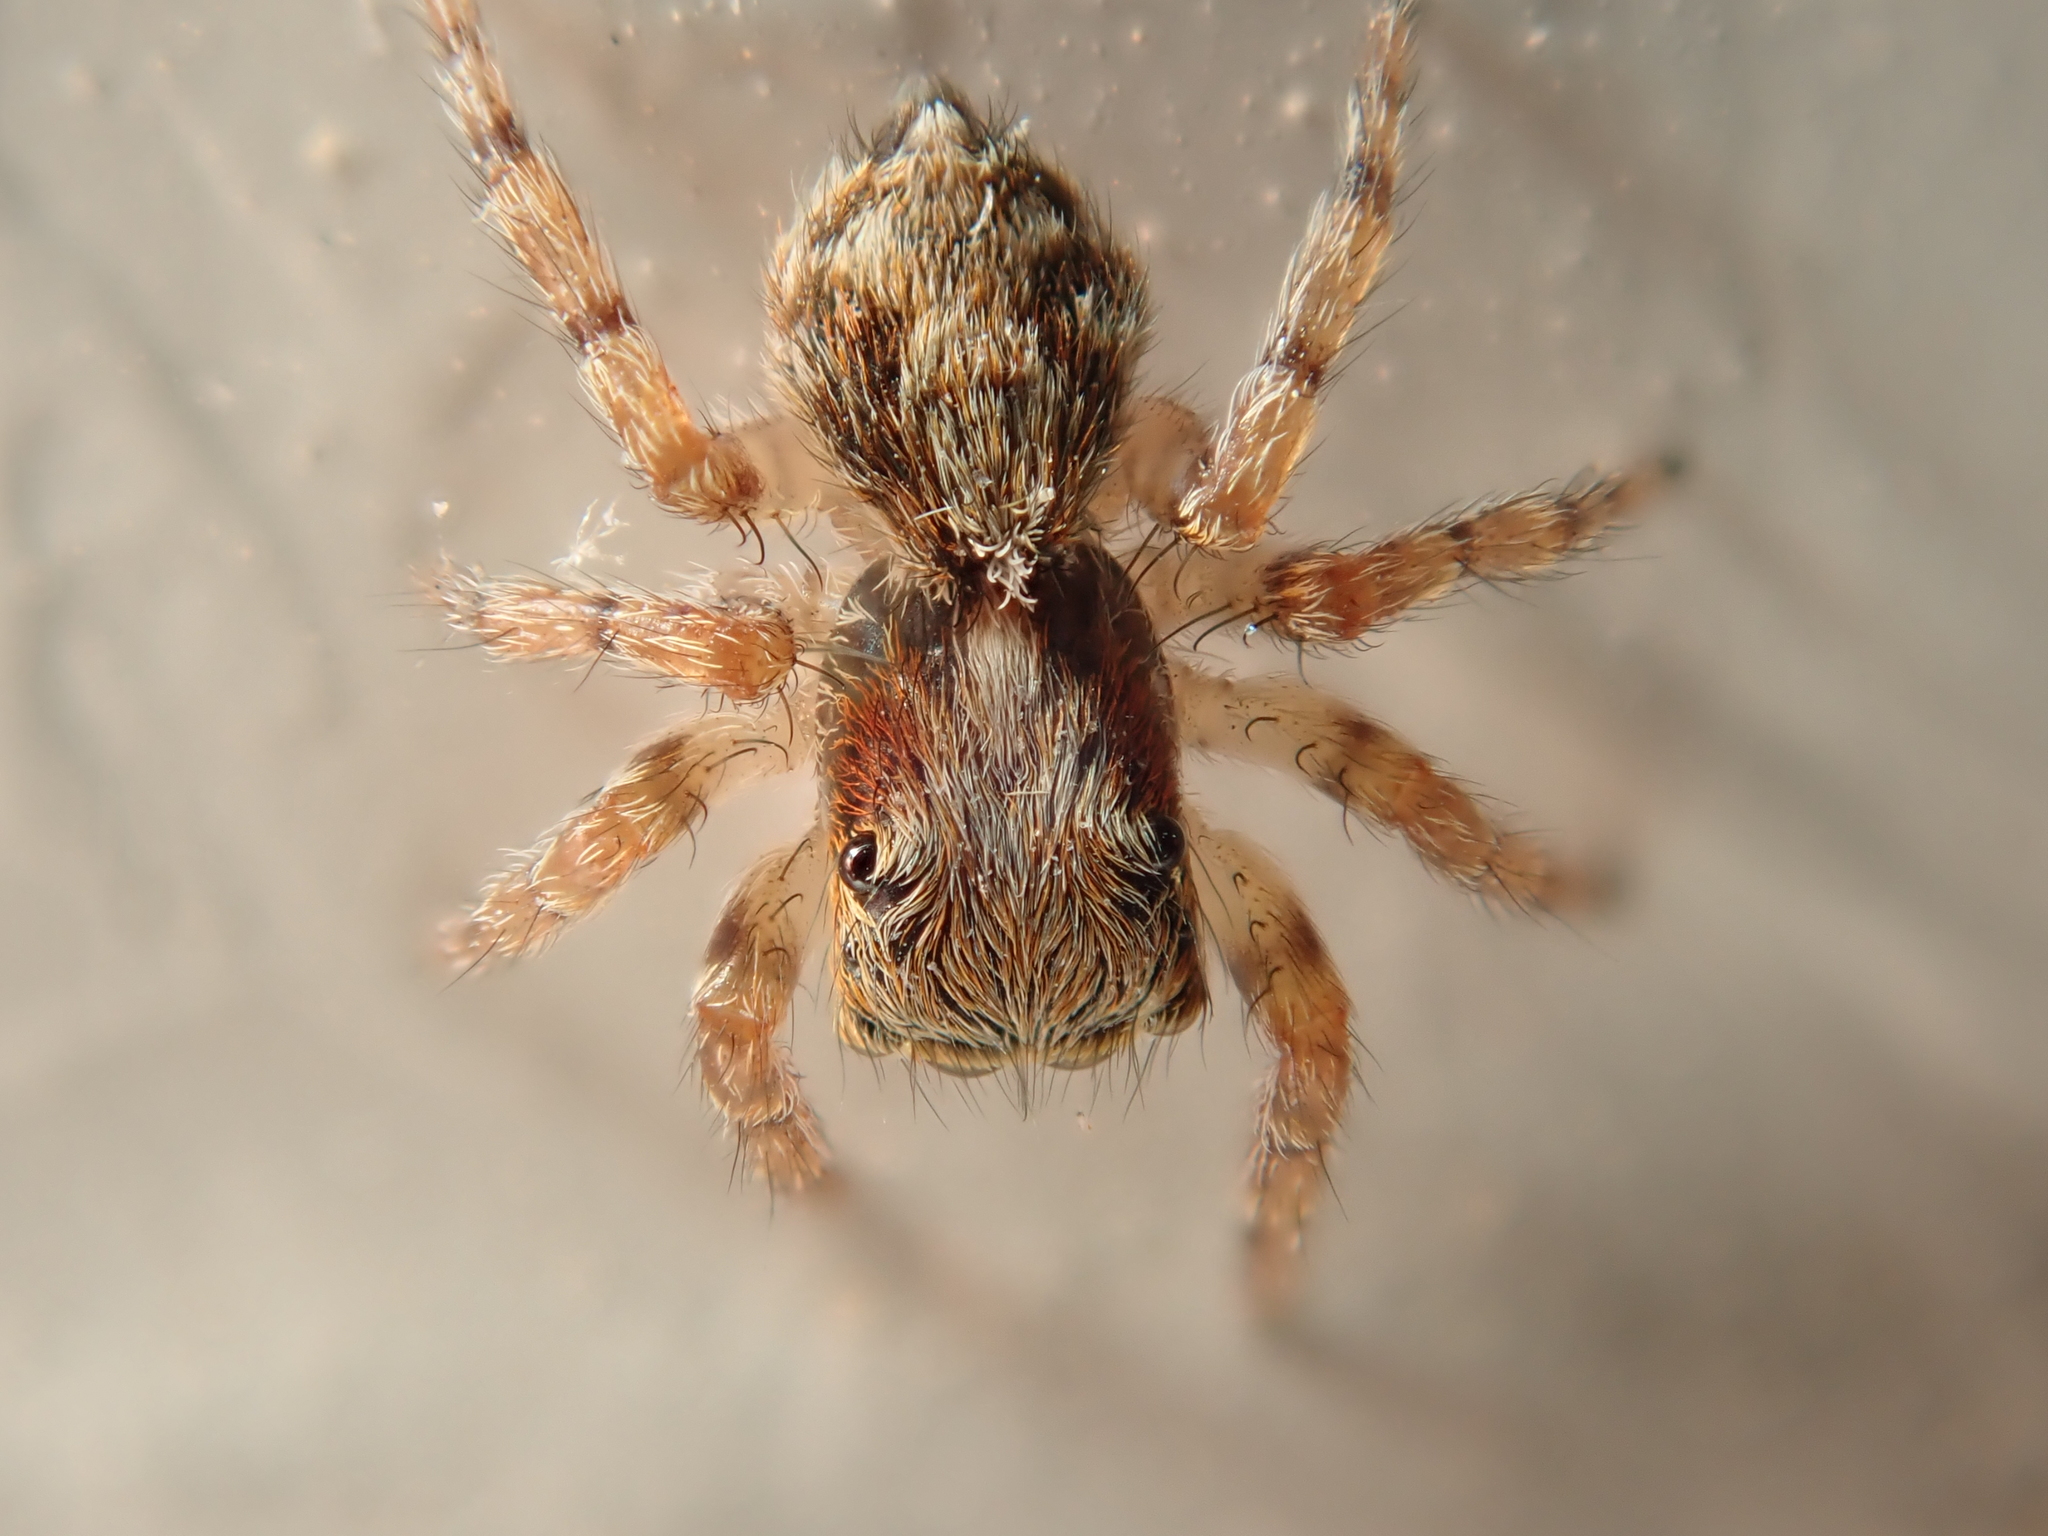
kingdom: Animalia
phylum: Arthropoda
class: Arachnida
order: Araneae
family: Salticidae
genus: Pseudeuophrys
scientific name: Pseudeuophrys lanigera
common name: Jumping spider
